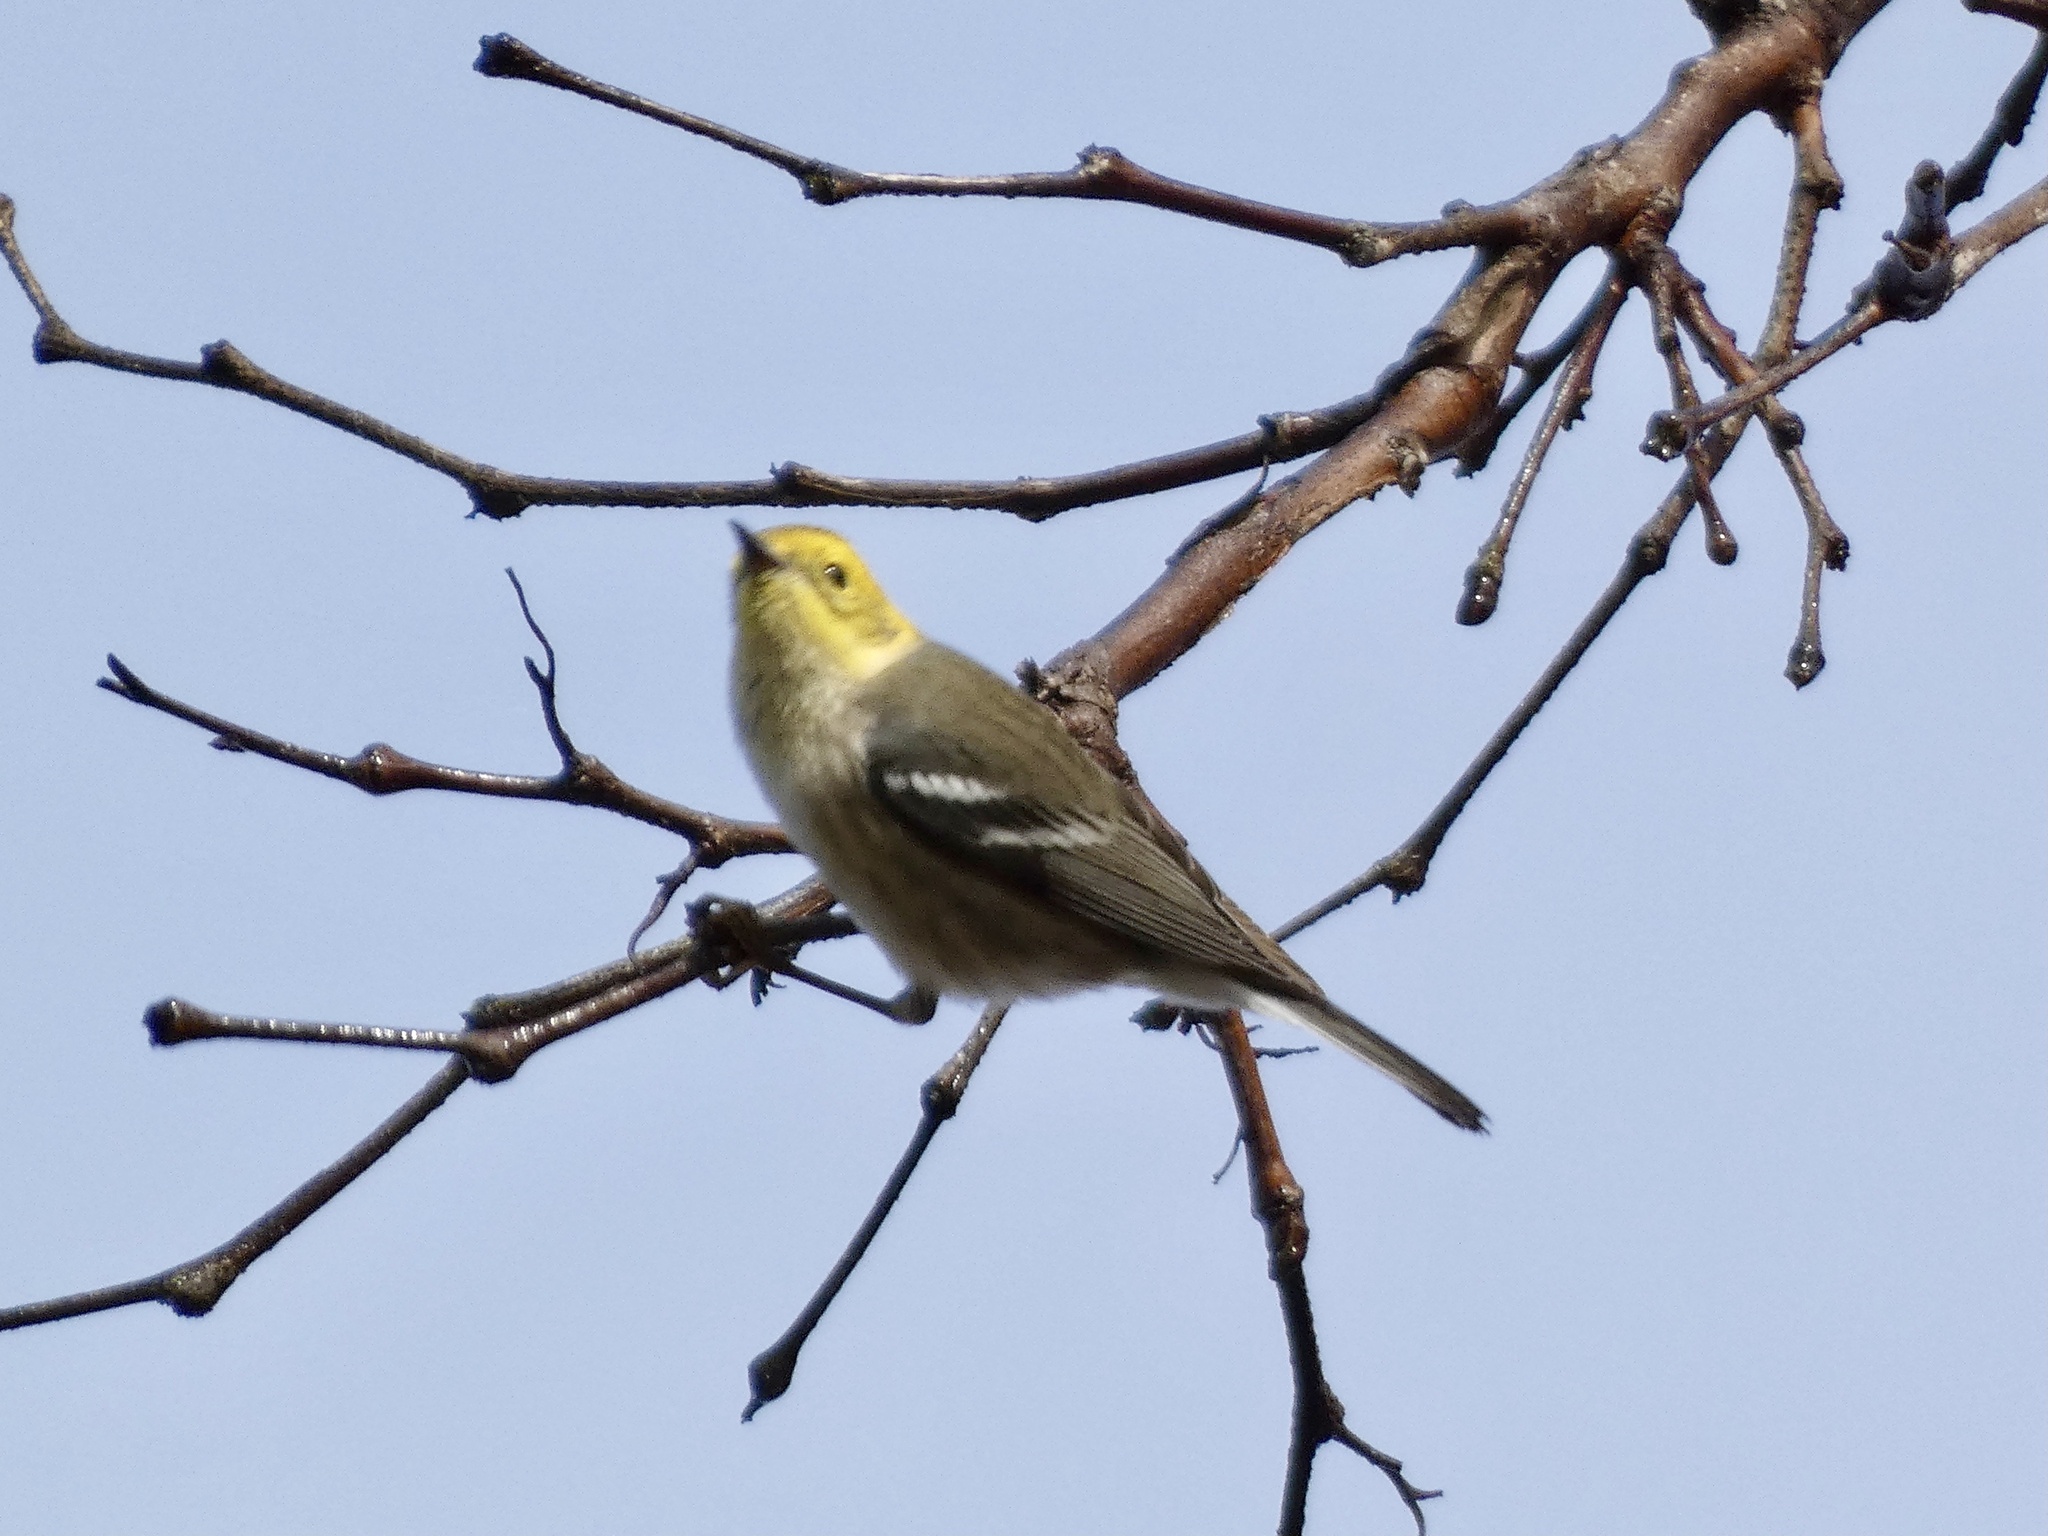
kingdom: Animalia
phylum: Chordata
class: Aves
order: Passeriformes
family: Parulidae
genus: Setophaga
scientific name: Setophaga occidentalis
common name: Hermit warbler
